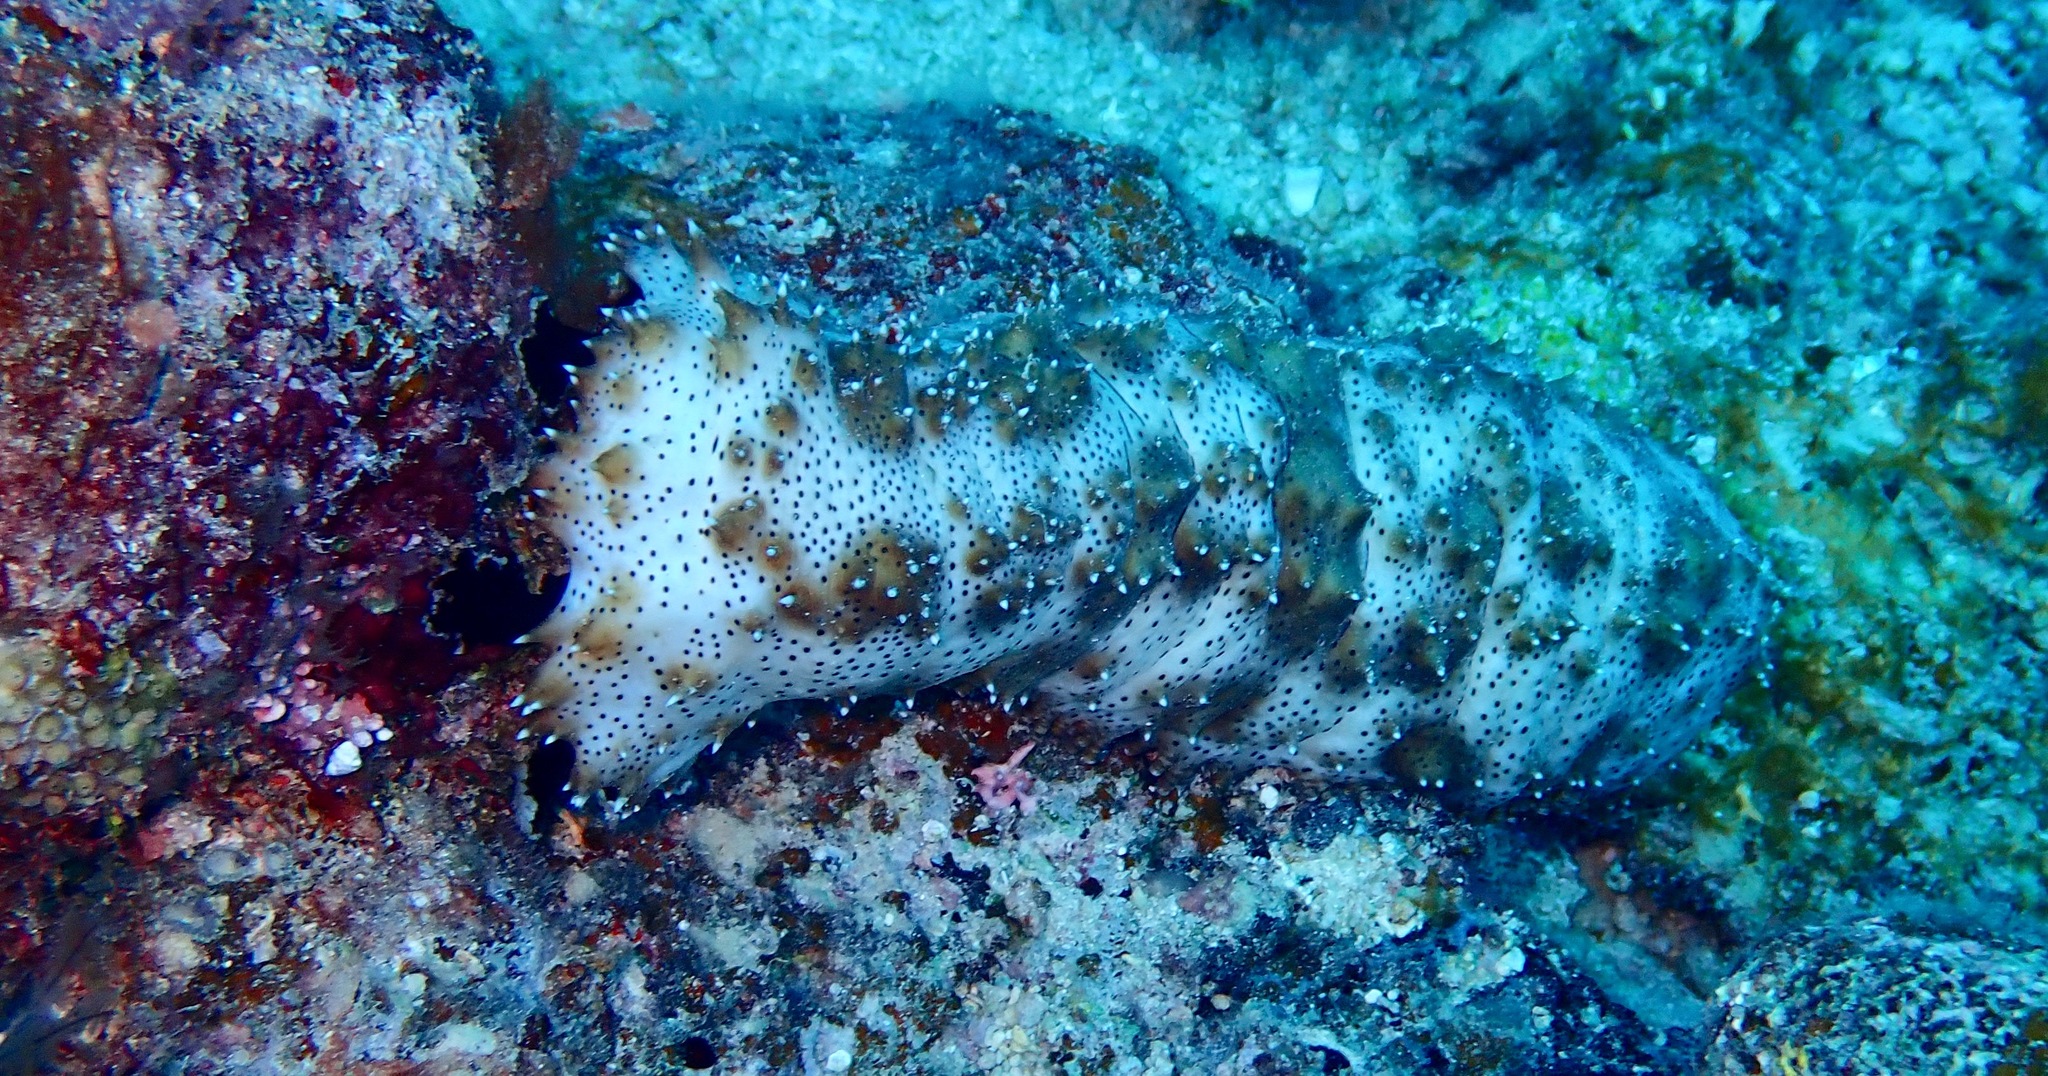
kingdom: Animalia
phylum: Echinodermata
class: Holothuroidea
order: Holothuriida
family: Holothuriidae
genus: Pearsonothuria
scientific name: Pearsonothuria graeffei
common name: Blackspotted sea cucumber
